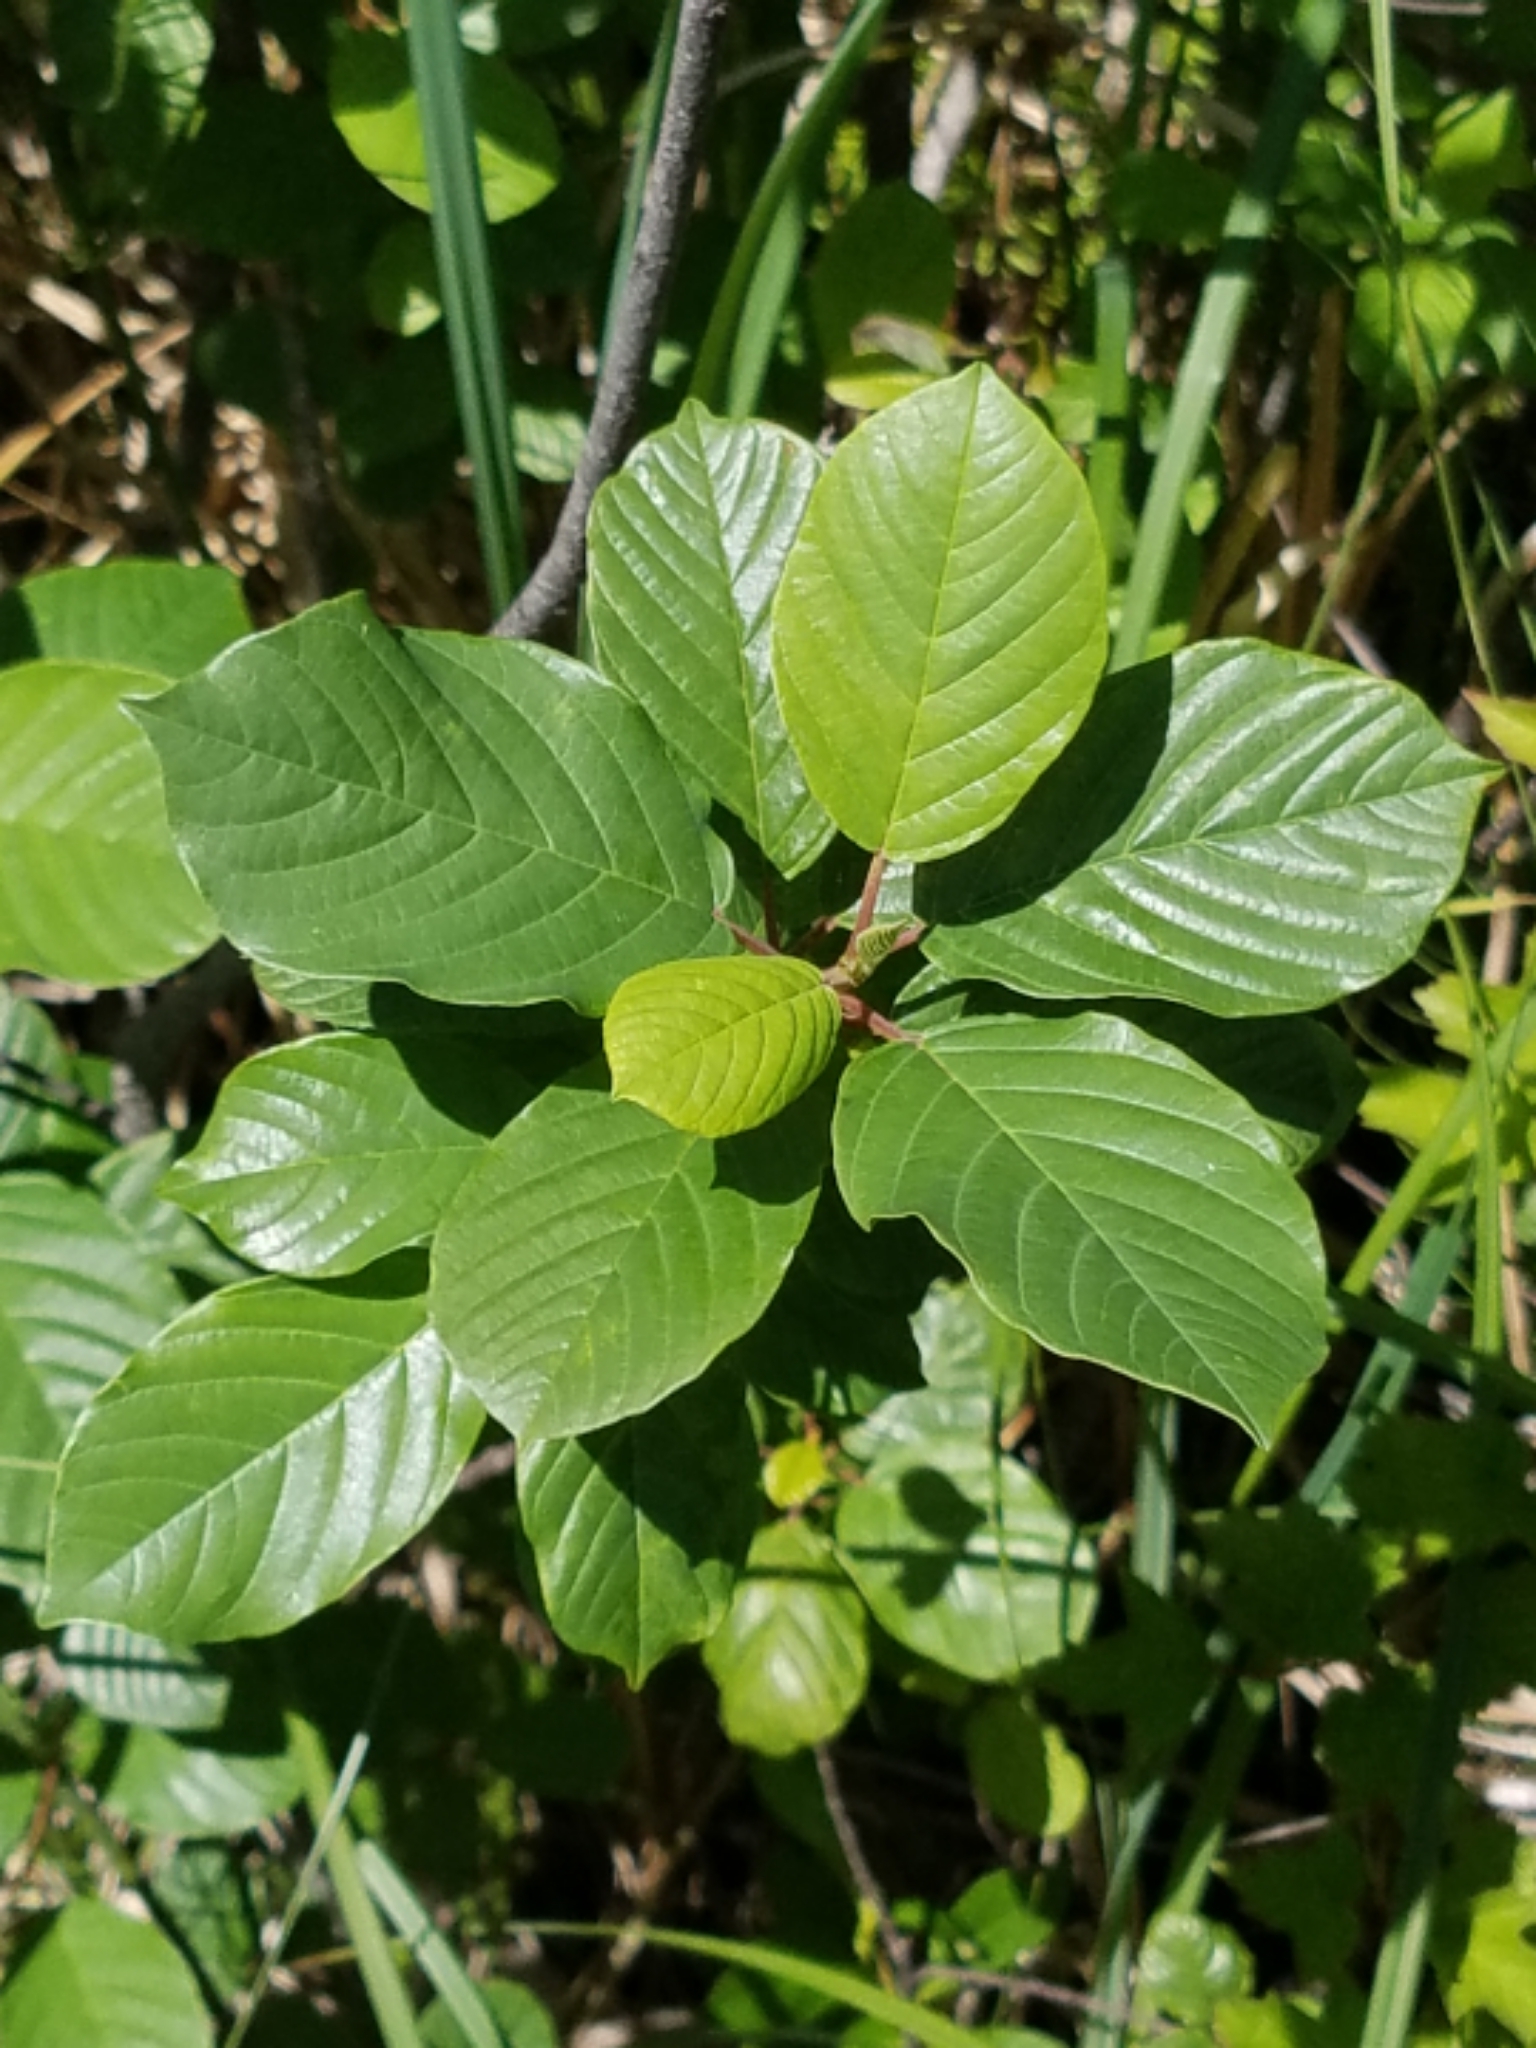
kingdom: Plantae
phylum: Tracheophyta
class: Magnoliopsida
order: Rosales
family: Rhamnaceae
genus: Frangula
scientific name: Frangula alnus
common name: Alder buckthorn
